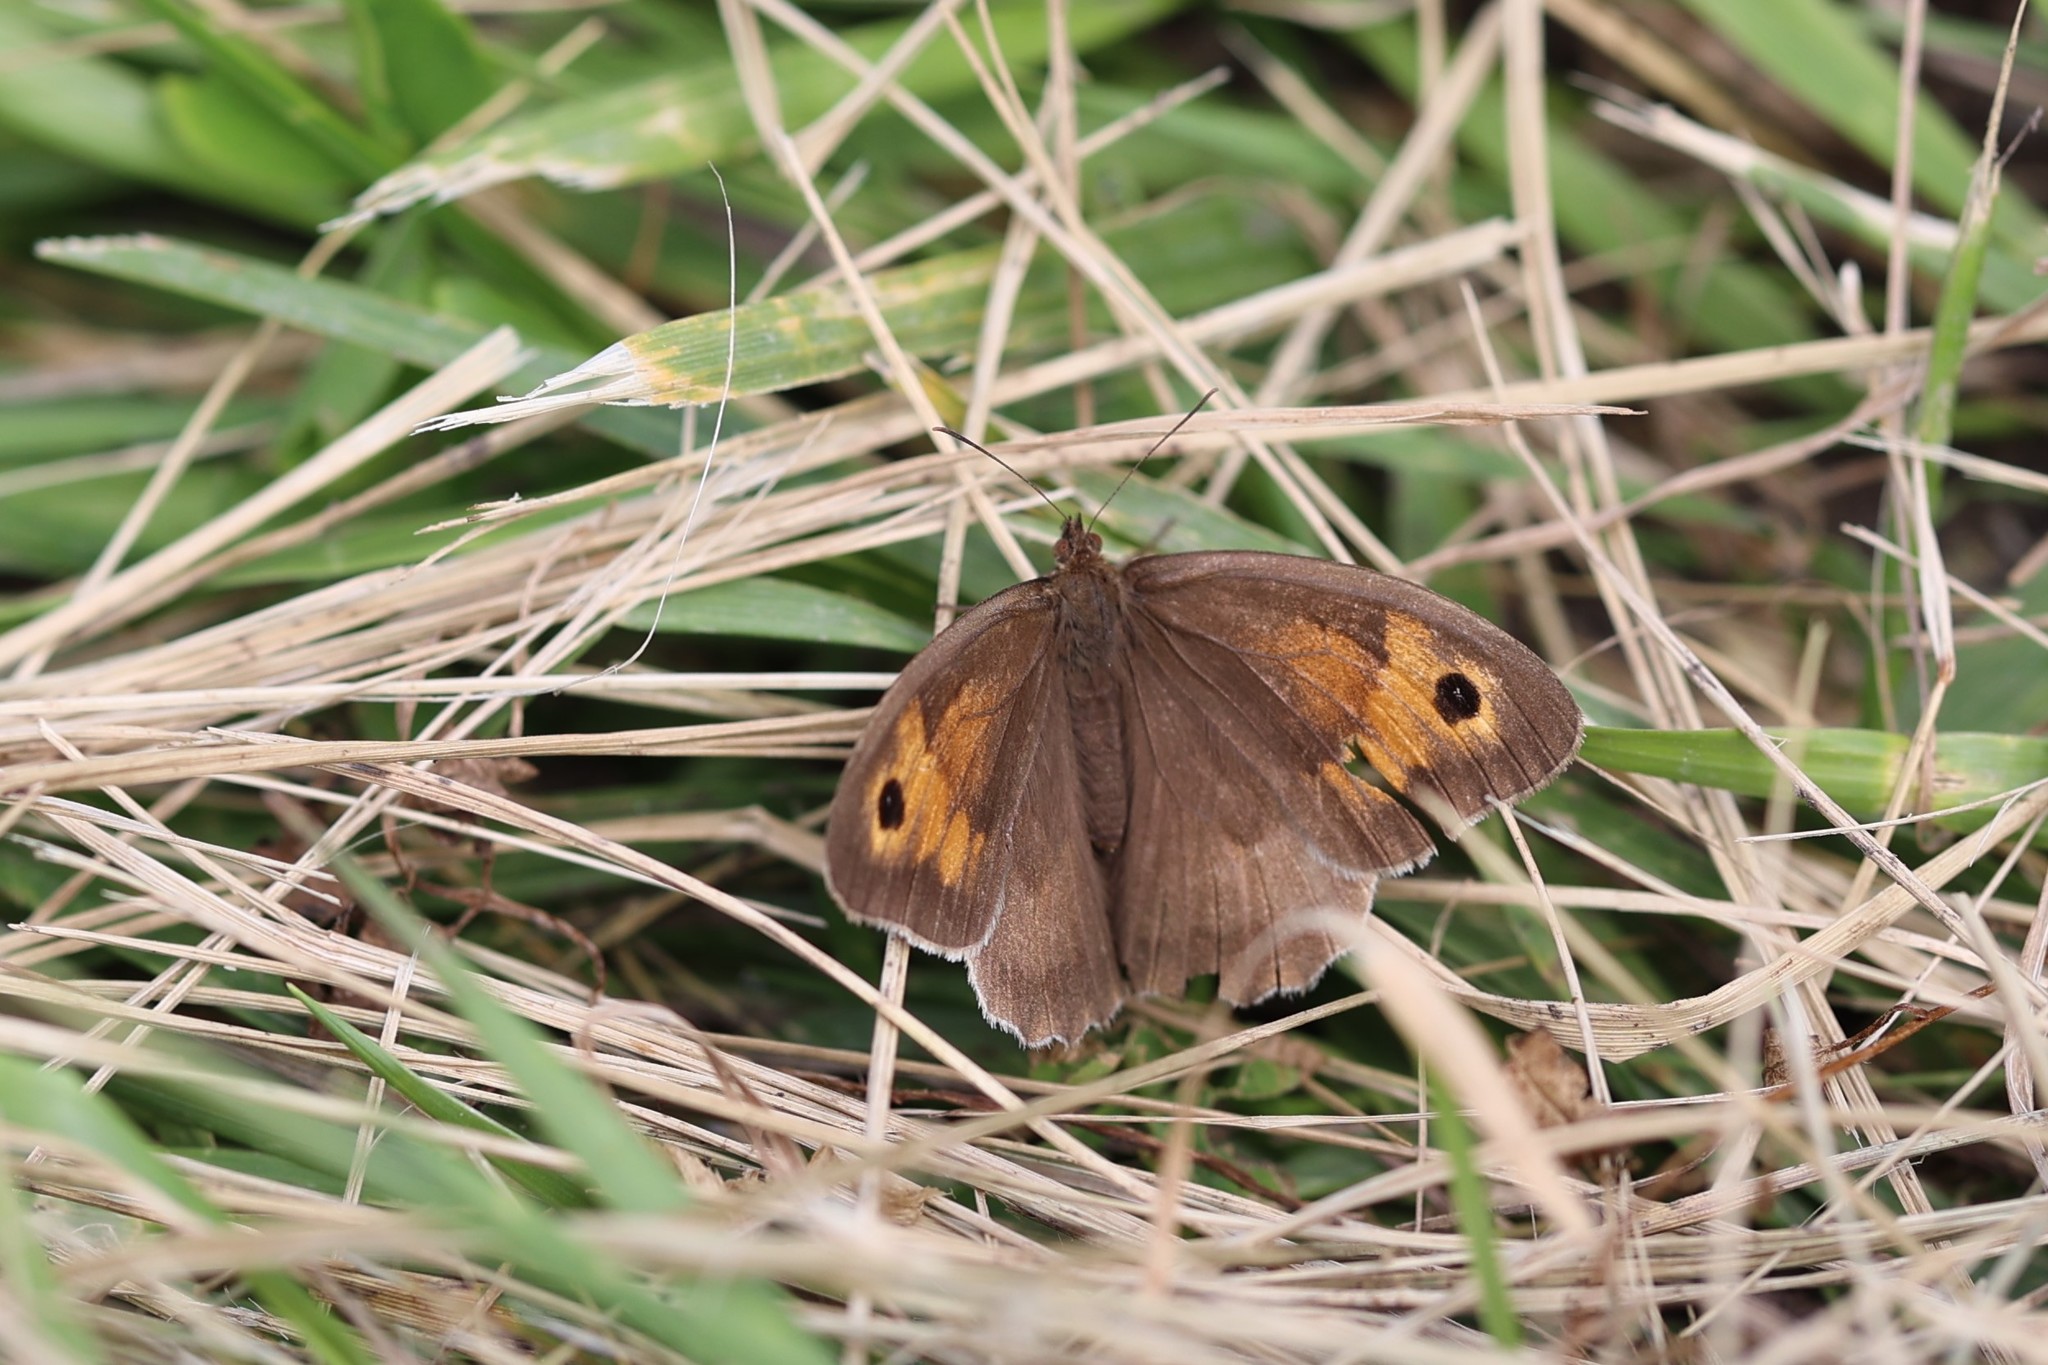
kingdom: Animalia
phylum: Arthropoda
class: Insecta
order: Lepidoptera
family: Nymphalidae
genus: Maniola
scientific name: Maniola jurtina
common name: Meadow brown
